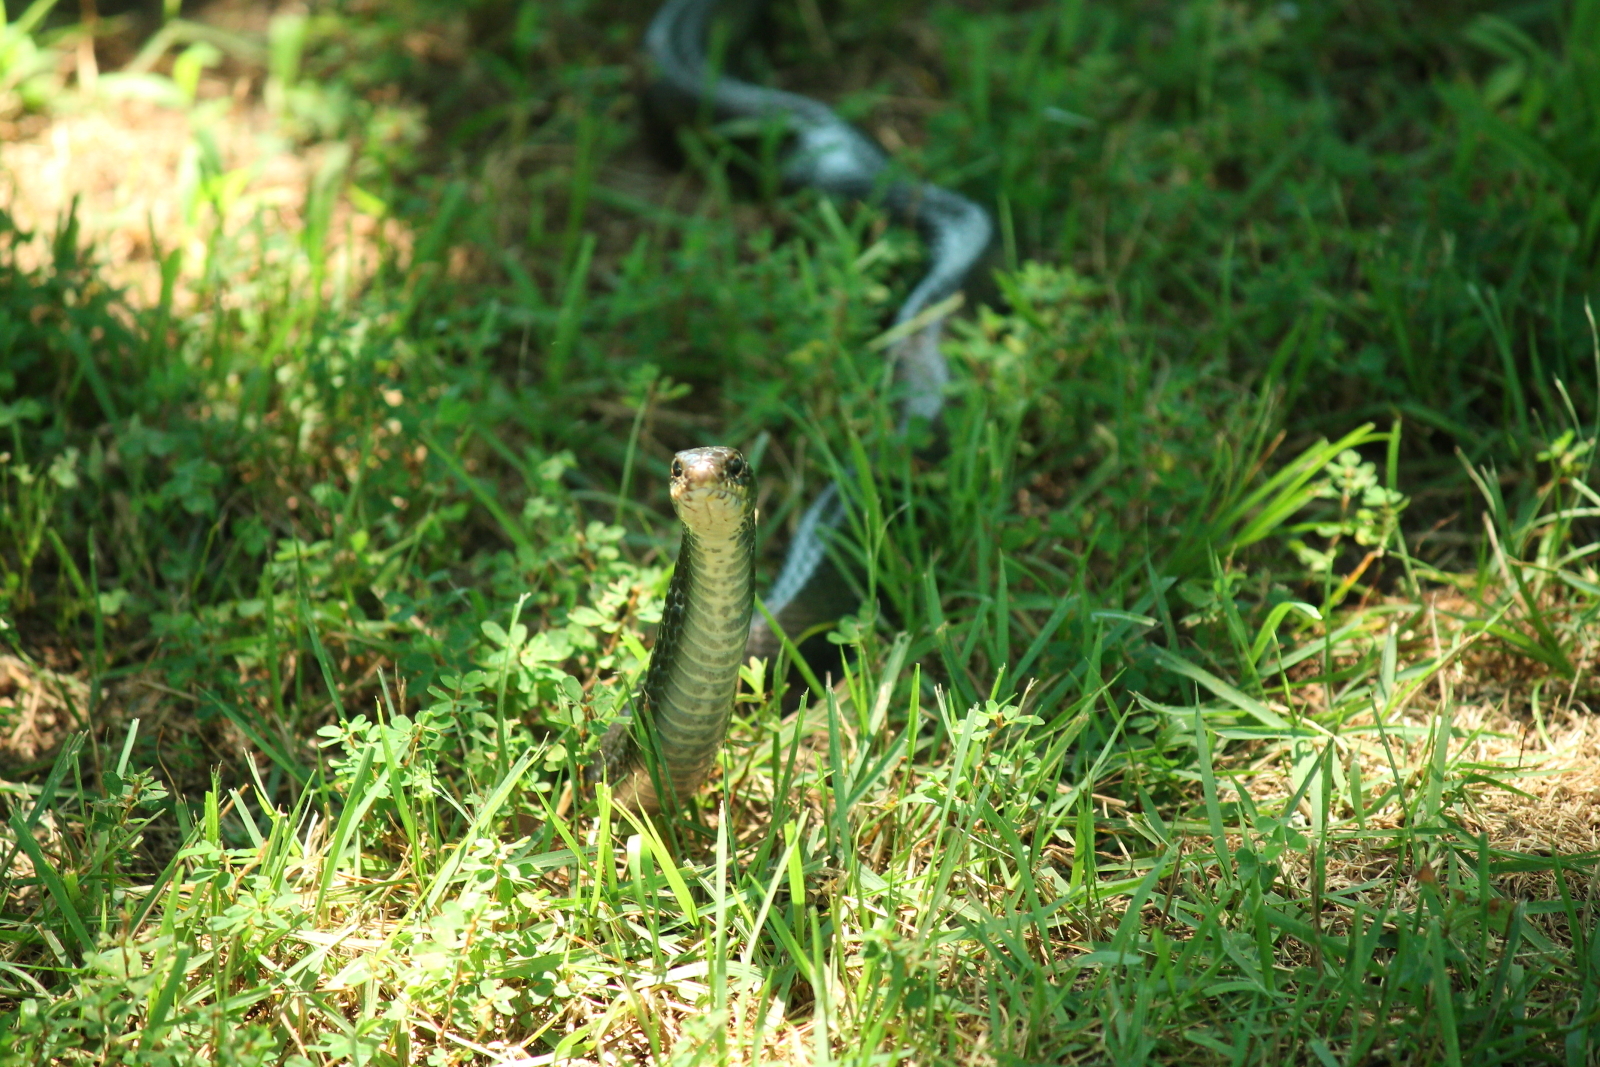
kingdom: Animalia
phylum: Chordata
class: Squamata
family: Colubridae
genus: Coluber
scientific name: Coluber constrictor
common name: Eastern racer
